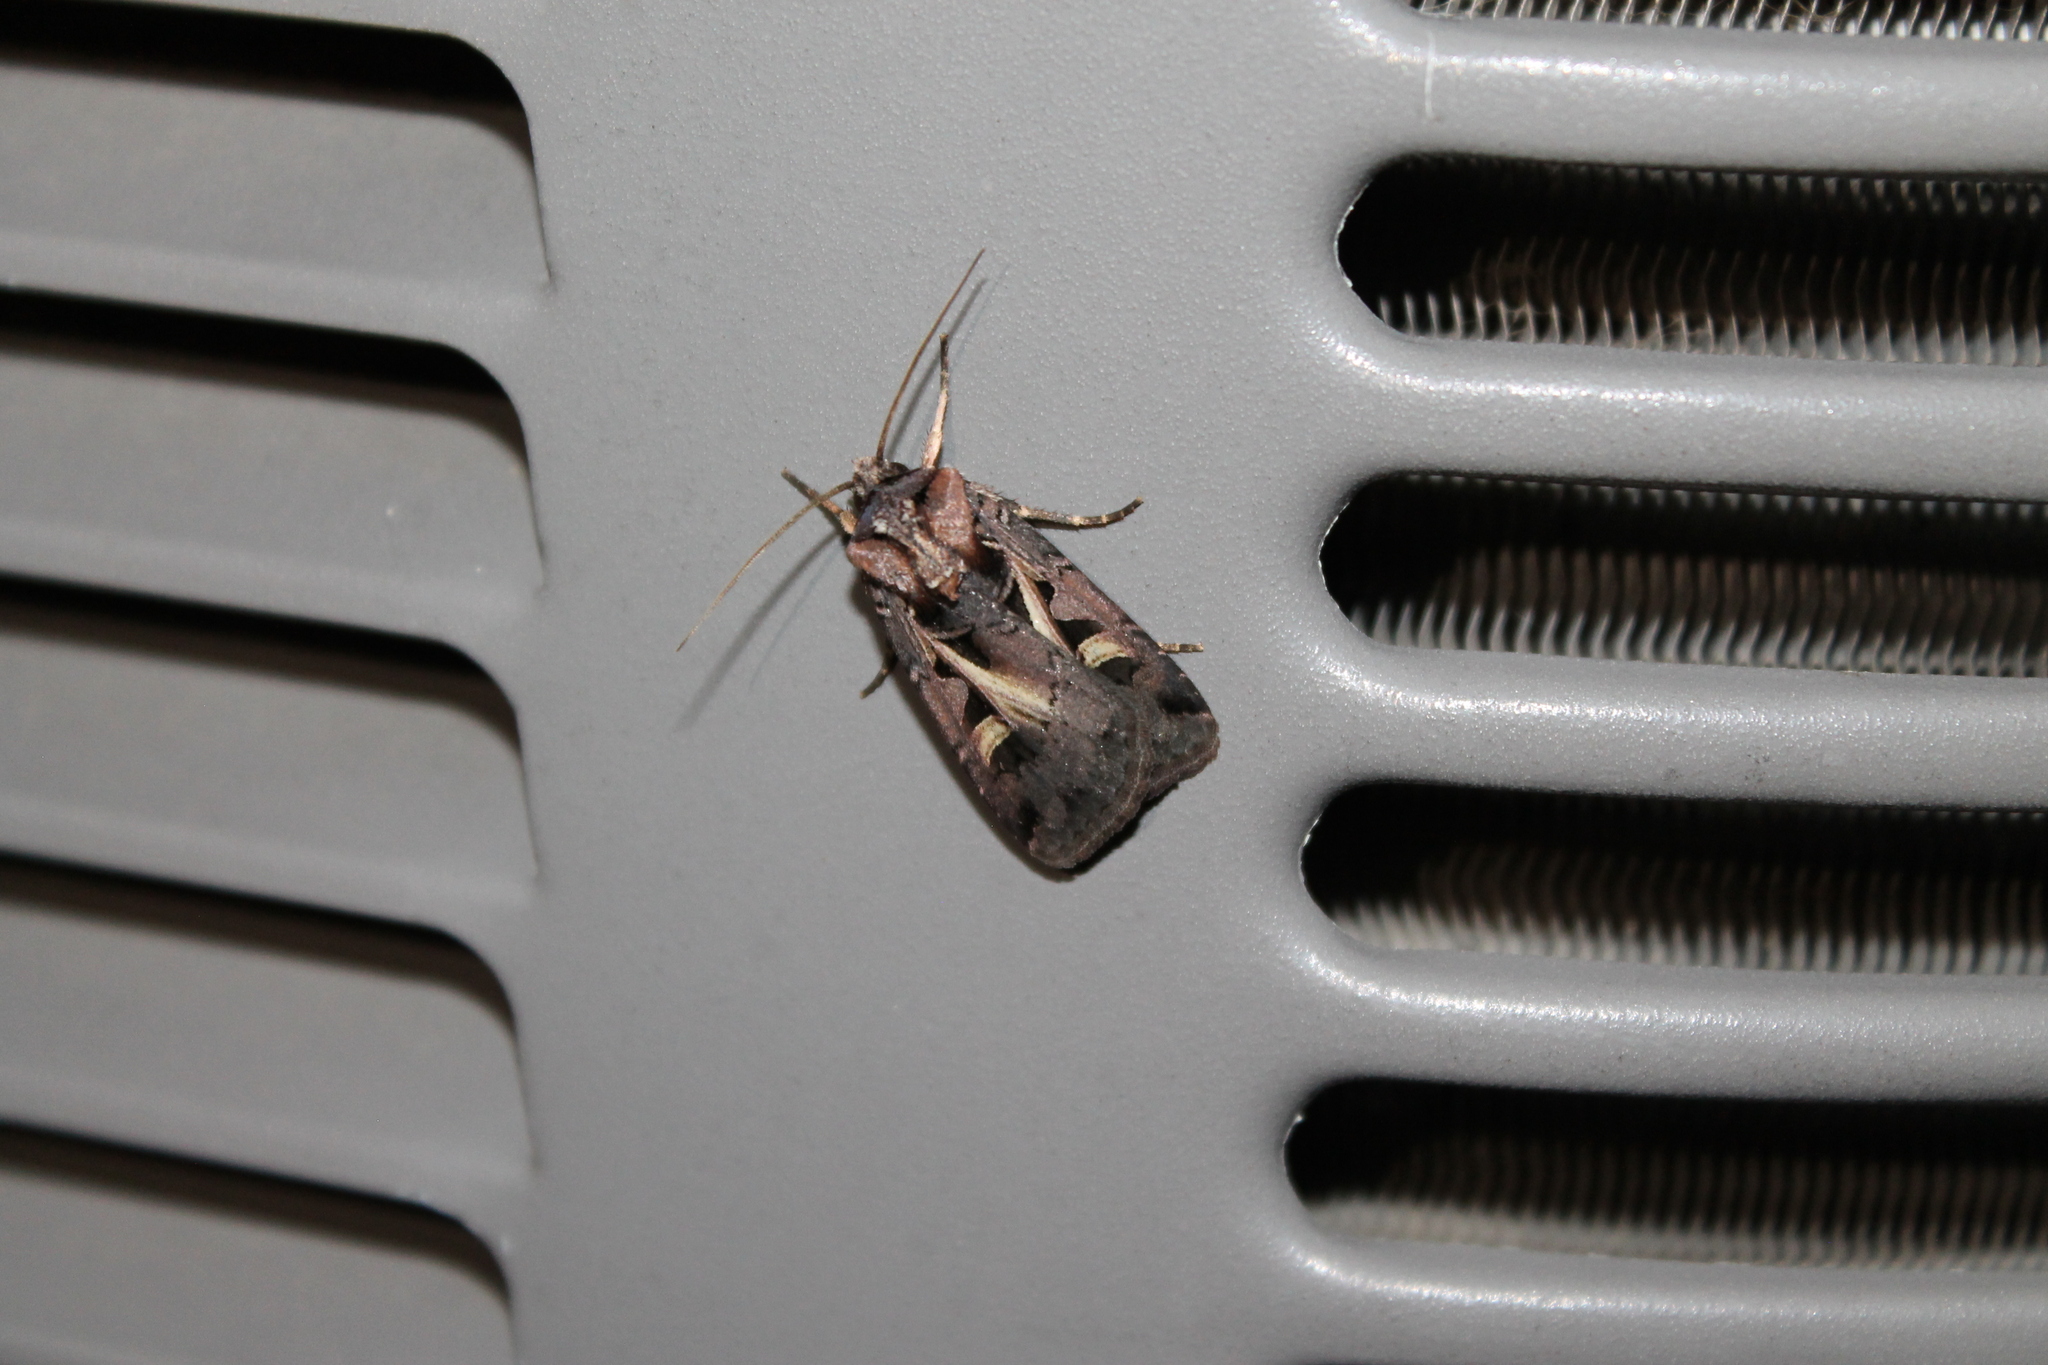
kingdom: Animalia
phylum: Arthropoda
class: Insecta
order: Lepidoptera
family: Noctuidae
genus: Feltia
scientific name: Feltia herilis
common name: Master's dart
